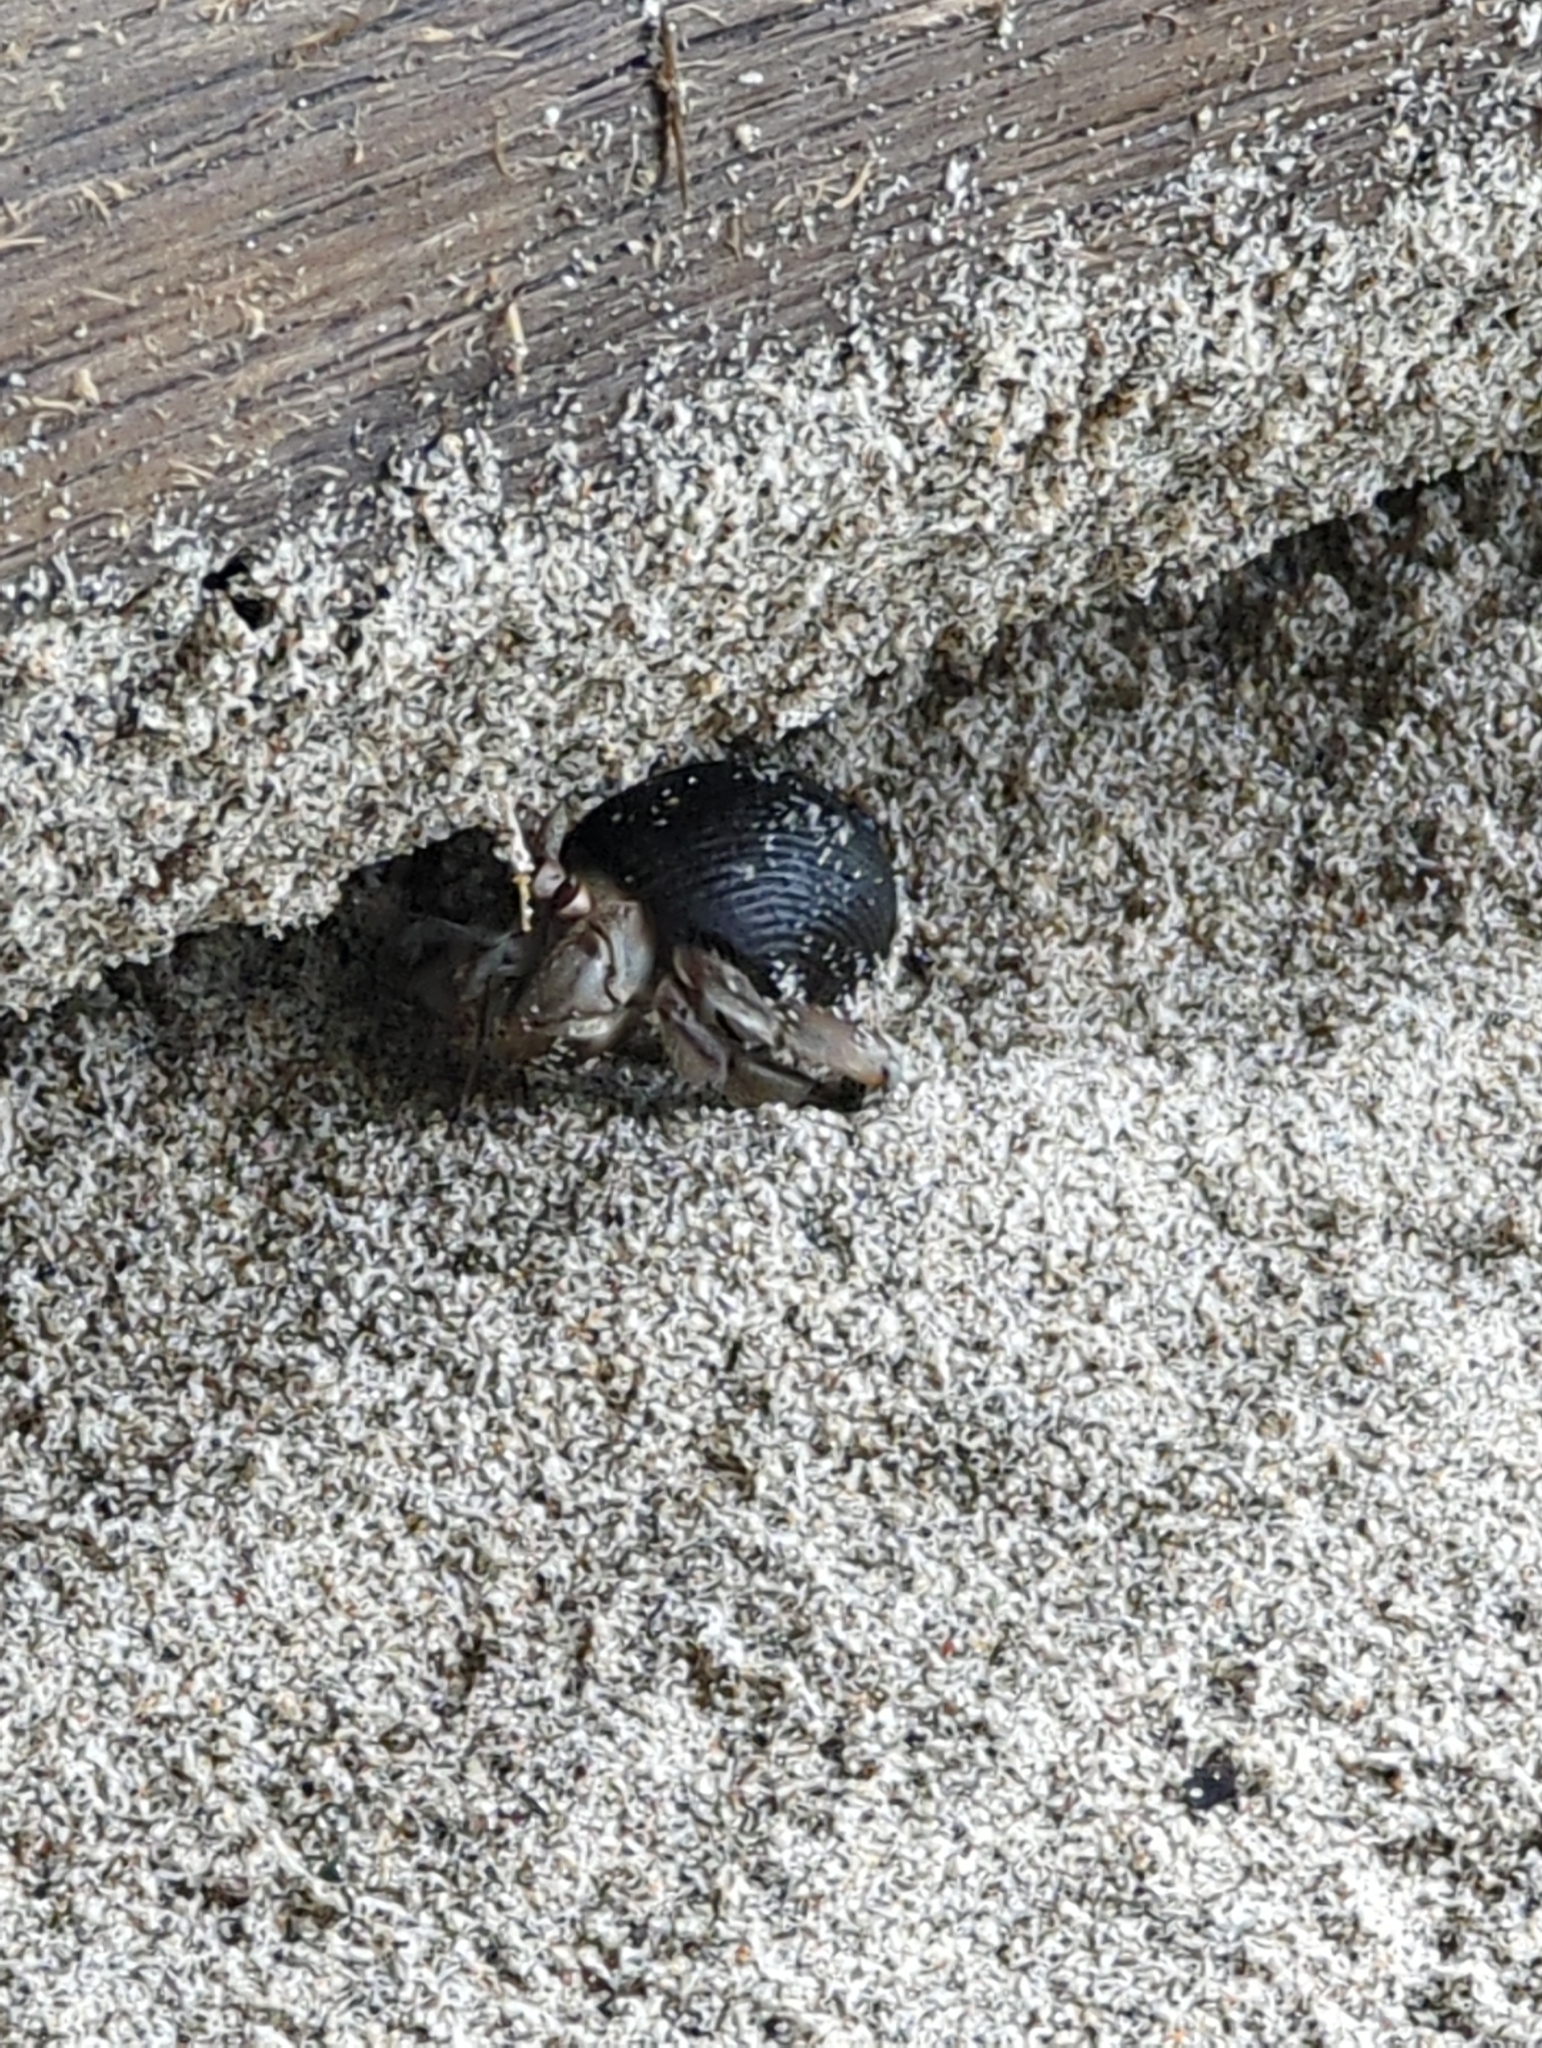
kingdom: Animalia
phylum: Arthropoda
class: Malacostraca
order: Decapoda
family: Coenobitidae
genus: Coenobita
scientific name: Coenobita compressus
